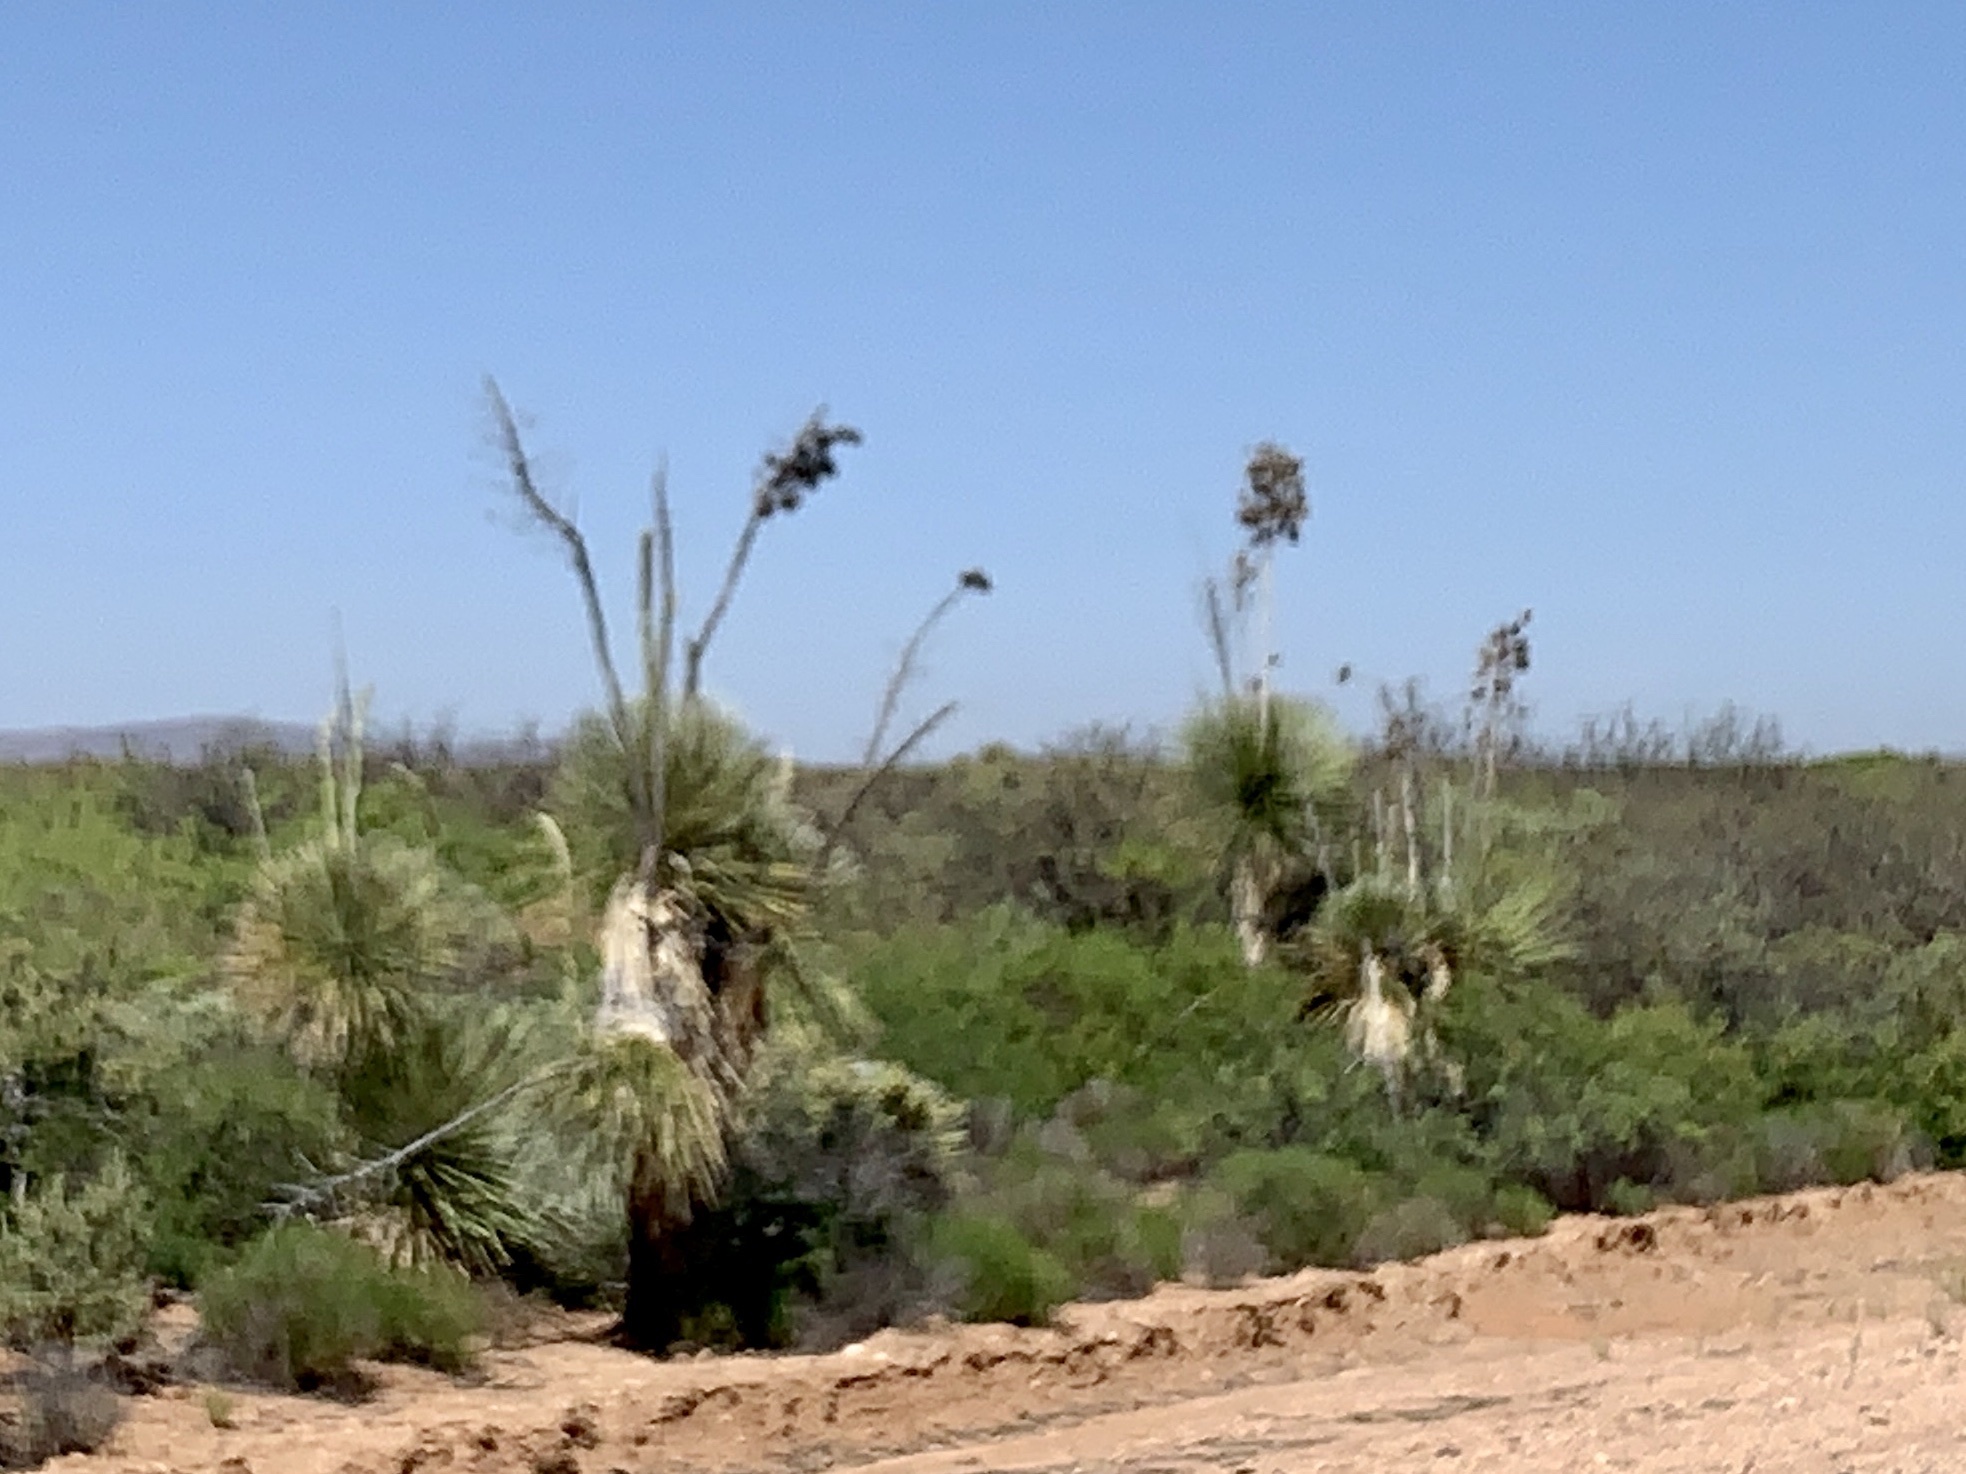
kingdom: Plantae
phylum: Tracheophyta
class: Liliopsida
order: Asparagales
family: Asparagaceae
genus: Yucca
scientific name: Yucca elata
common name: Palmella
